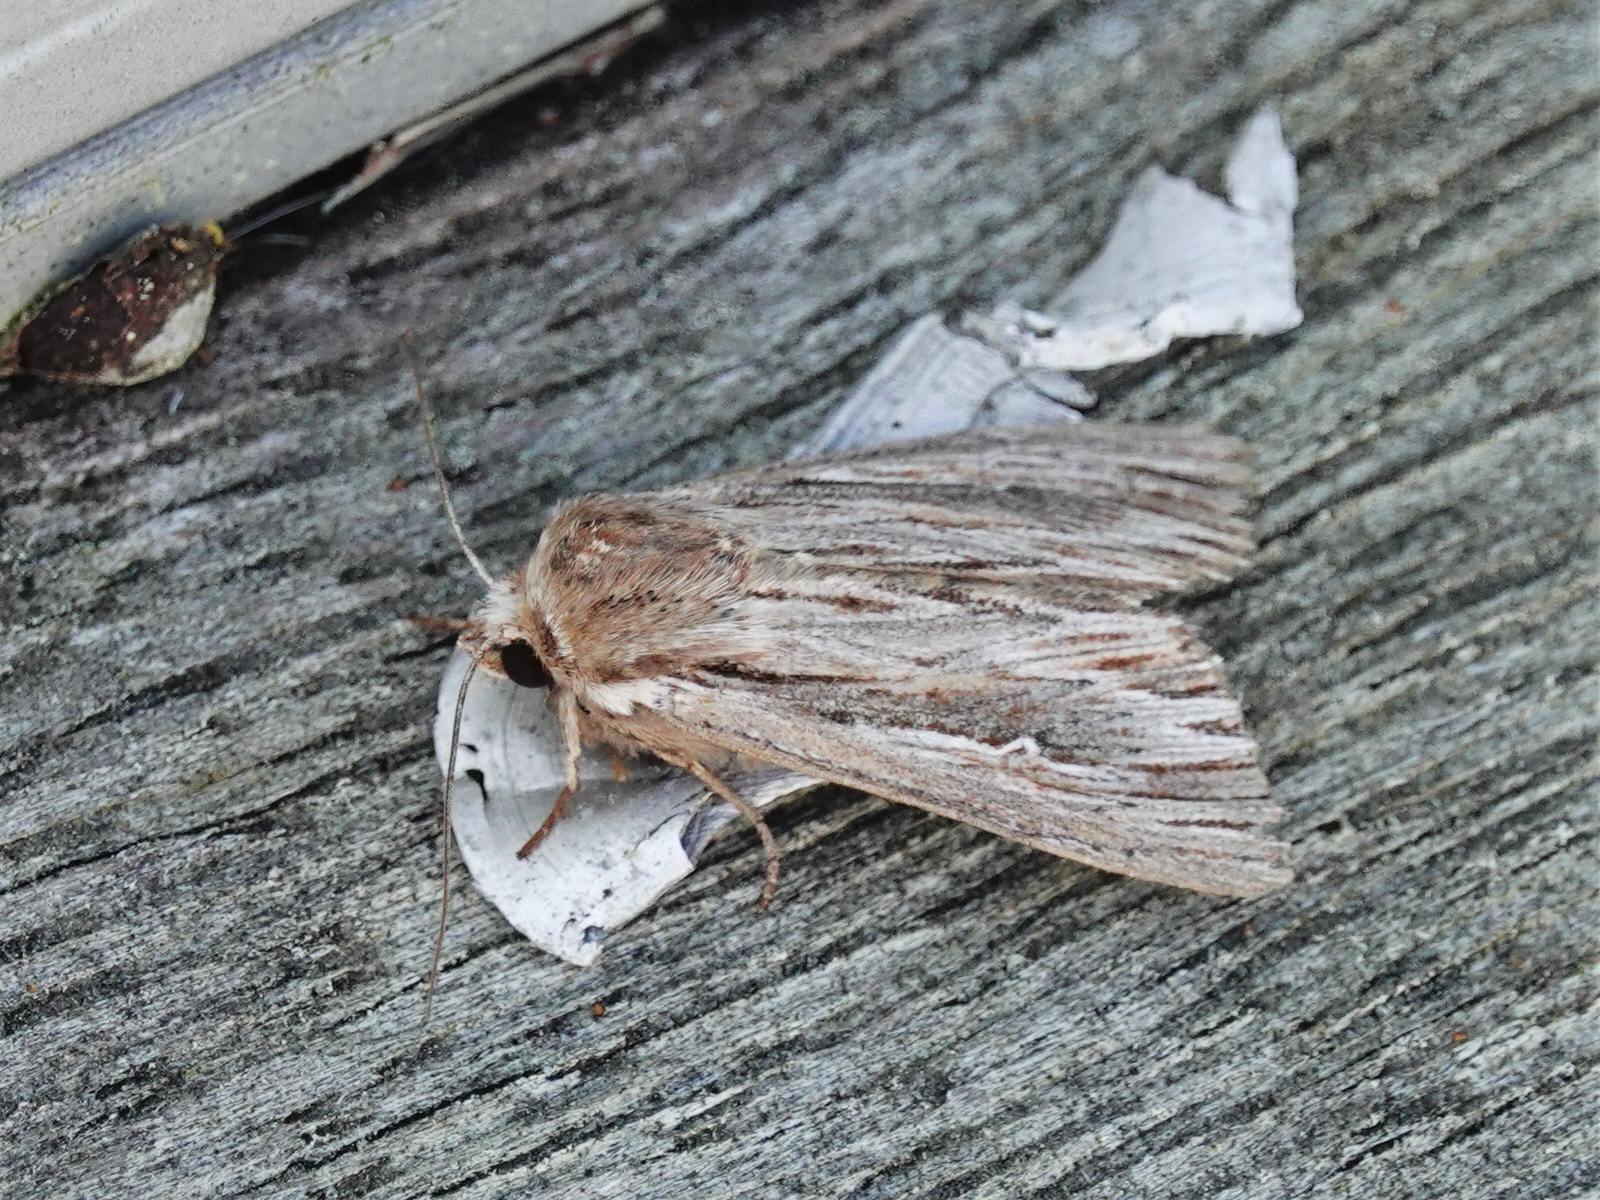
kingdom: Animalia
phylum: Arthropoda
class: Insecta
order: Lepidoptera
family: Noctuidae
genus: Persectania
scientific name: Persectania aversa
